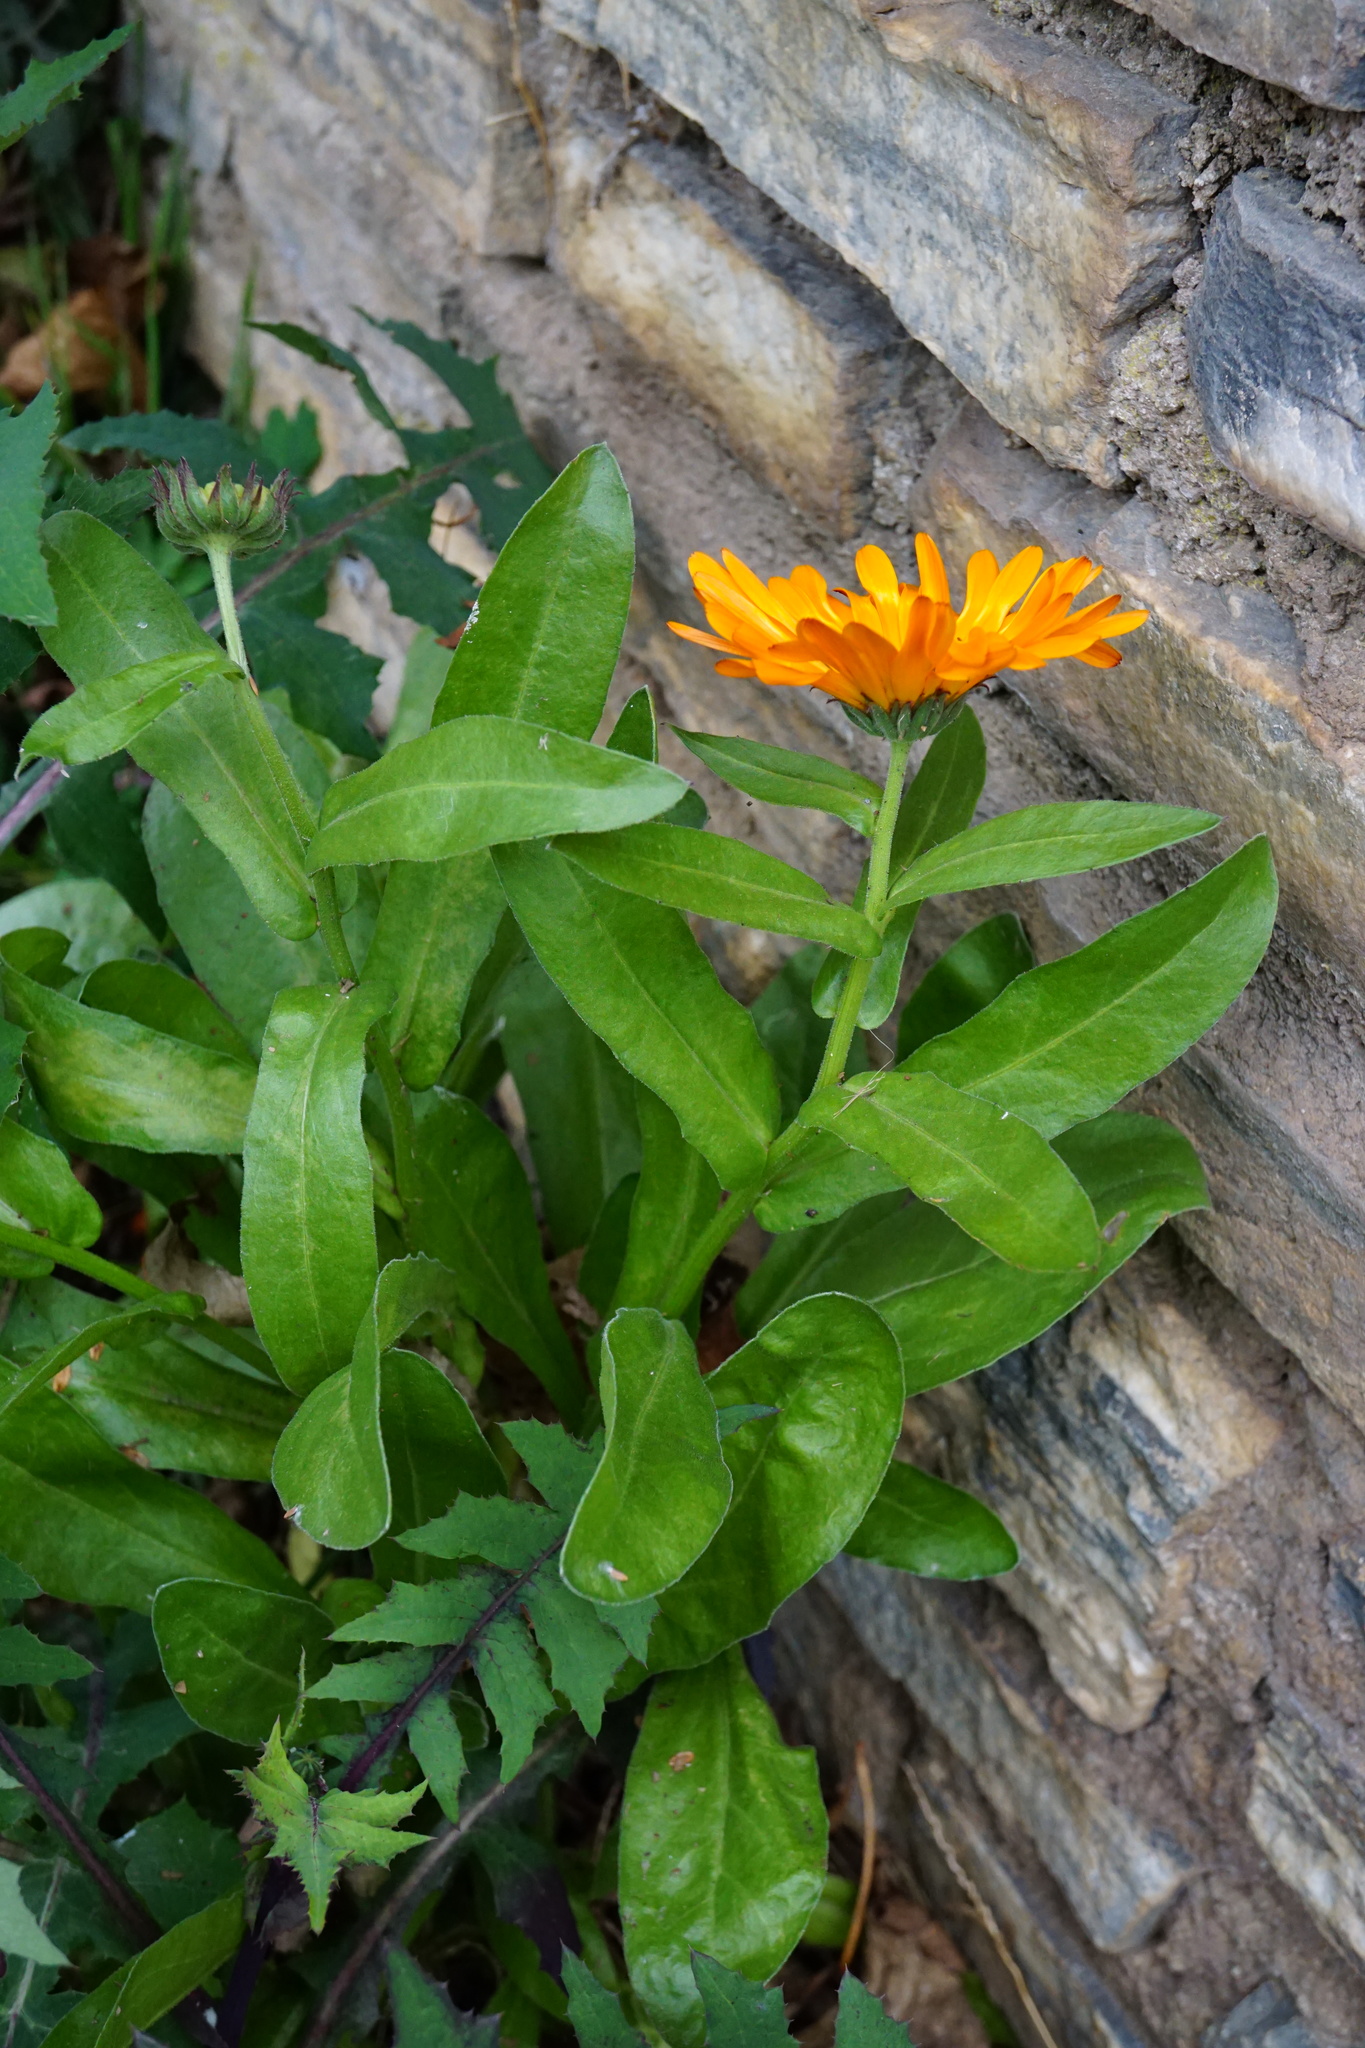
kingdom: Plantae
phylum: Tracheophyta
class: Magnoliopsida
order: Asterales
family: Asteraceae
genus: Calendula
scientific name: Calendula officinalis
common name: Pot marigold
